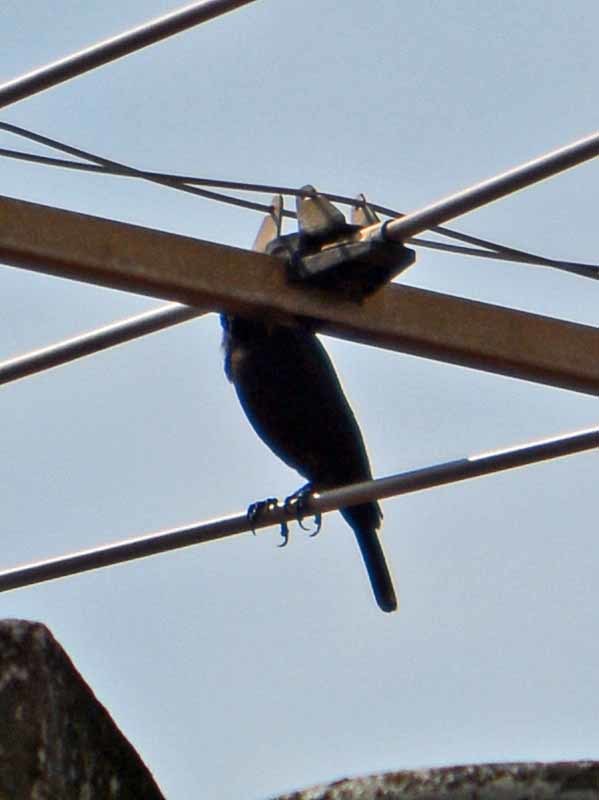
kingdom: Animalia
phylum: Chordata
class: Aves
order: Passeriformes
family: Icteridae
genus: Molothrus
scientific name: Molothrus aeneus
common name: Bronzed cowbird
